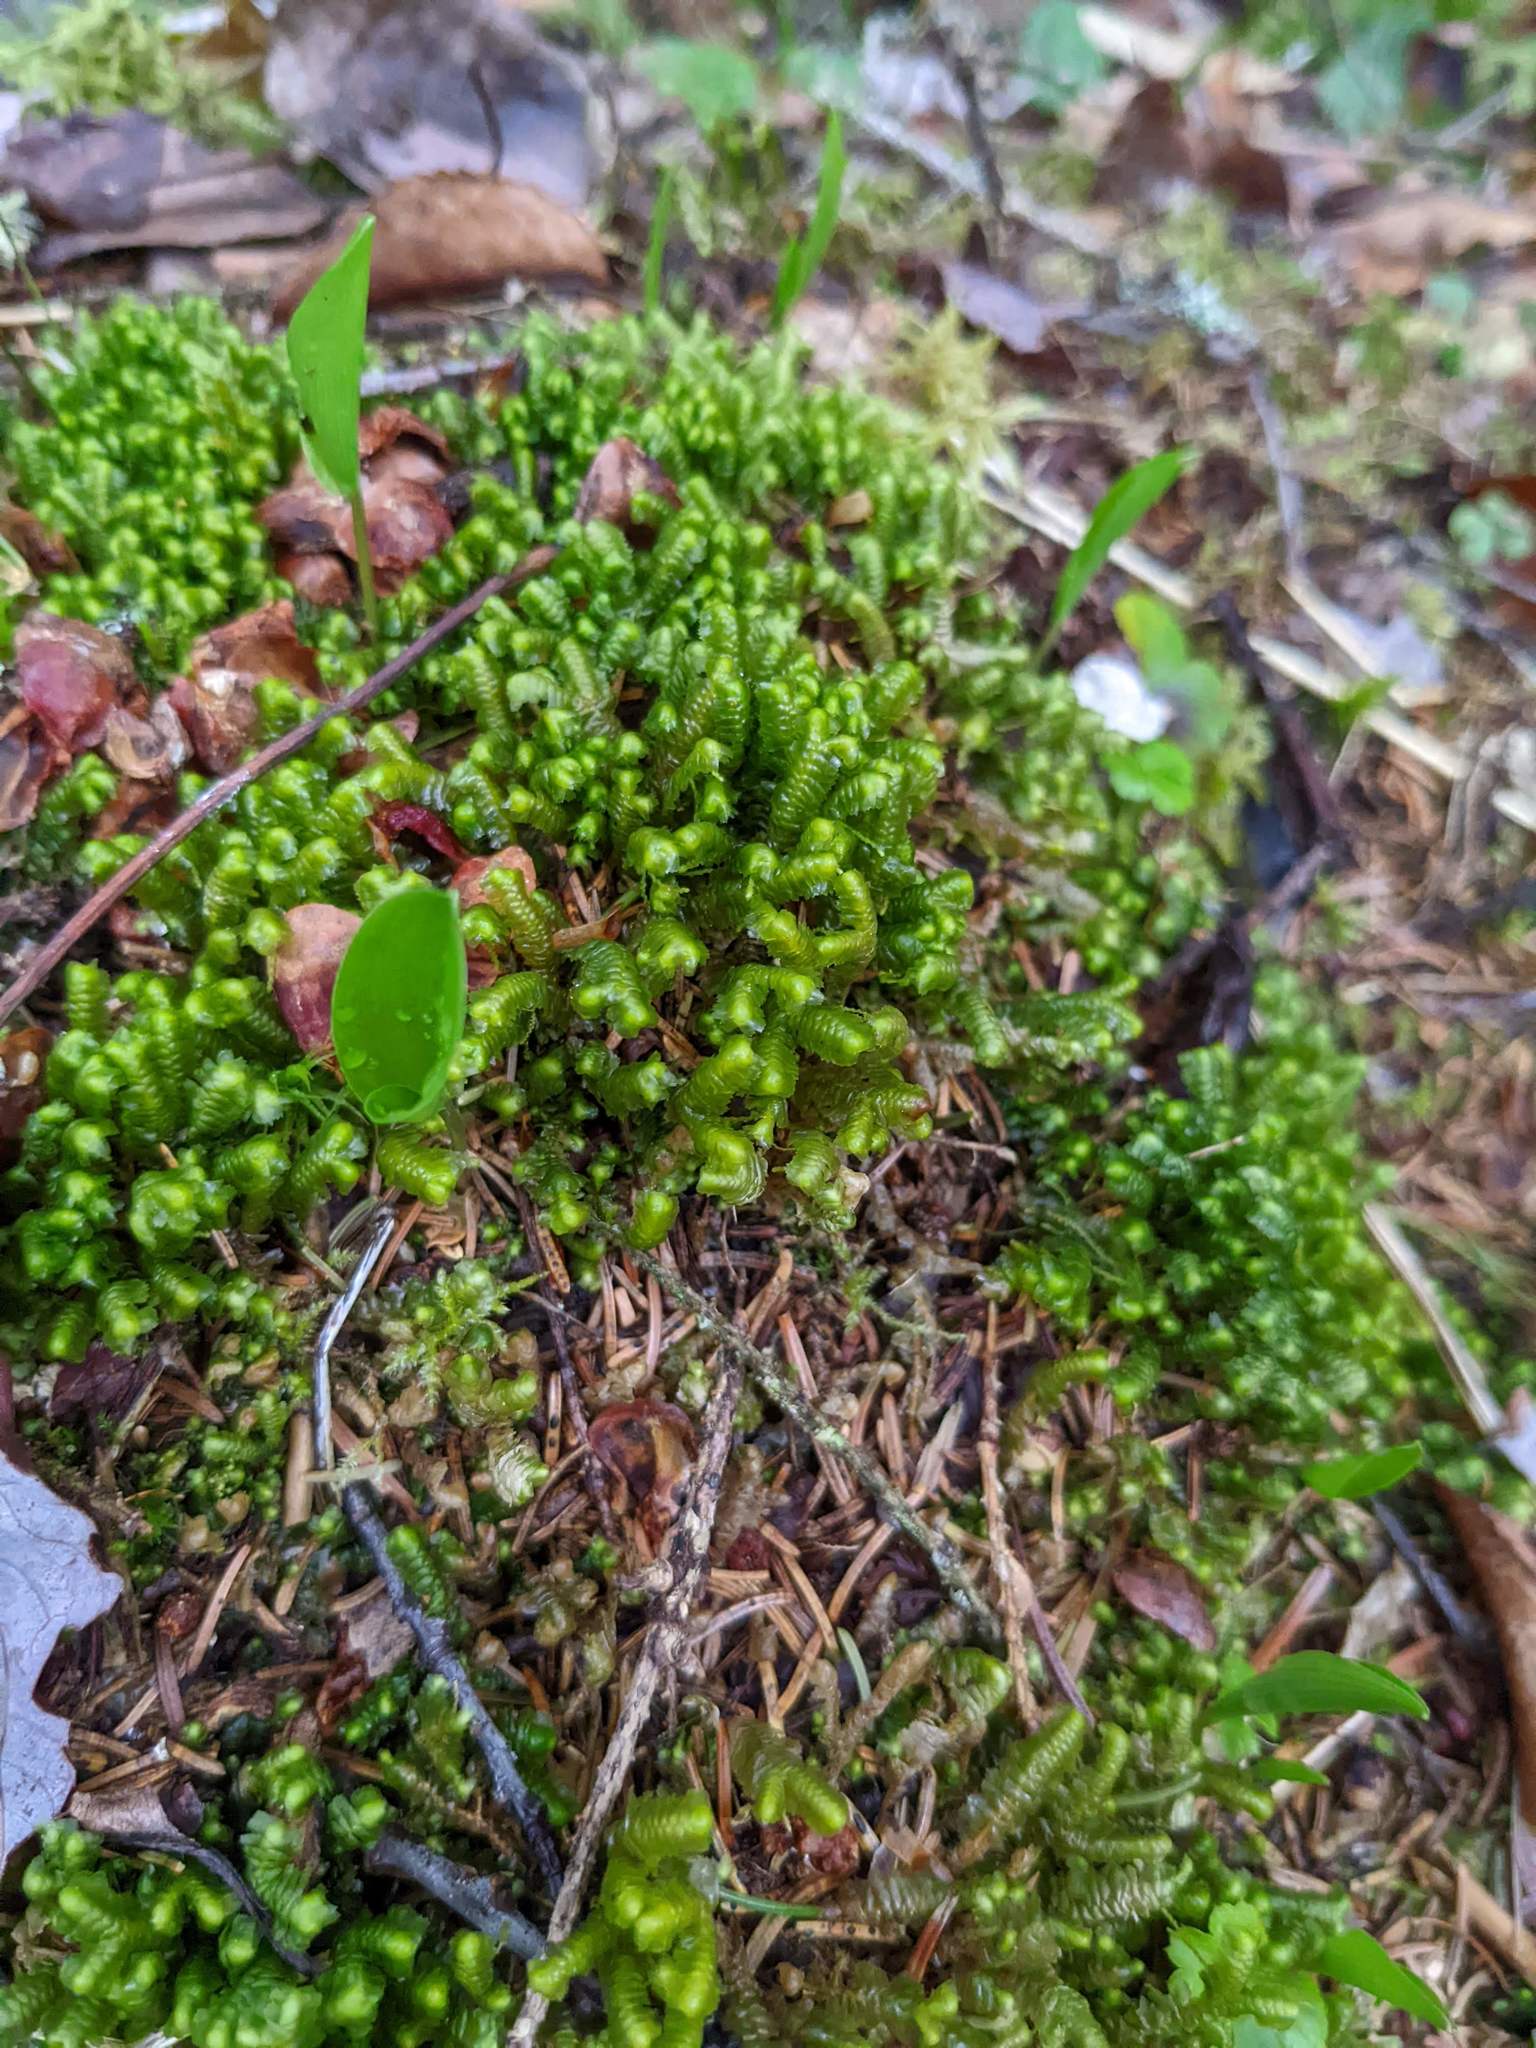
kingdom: Plantae
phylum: Tracheophyta
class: Liliopsida
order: Asparagales
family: Asparagaceae
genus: Maianthemum
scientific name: Maianthemum canadense
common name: False lily-of-the-valley
